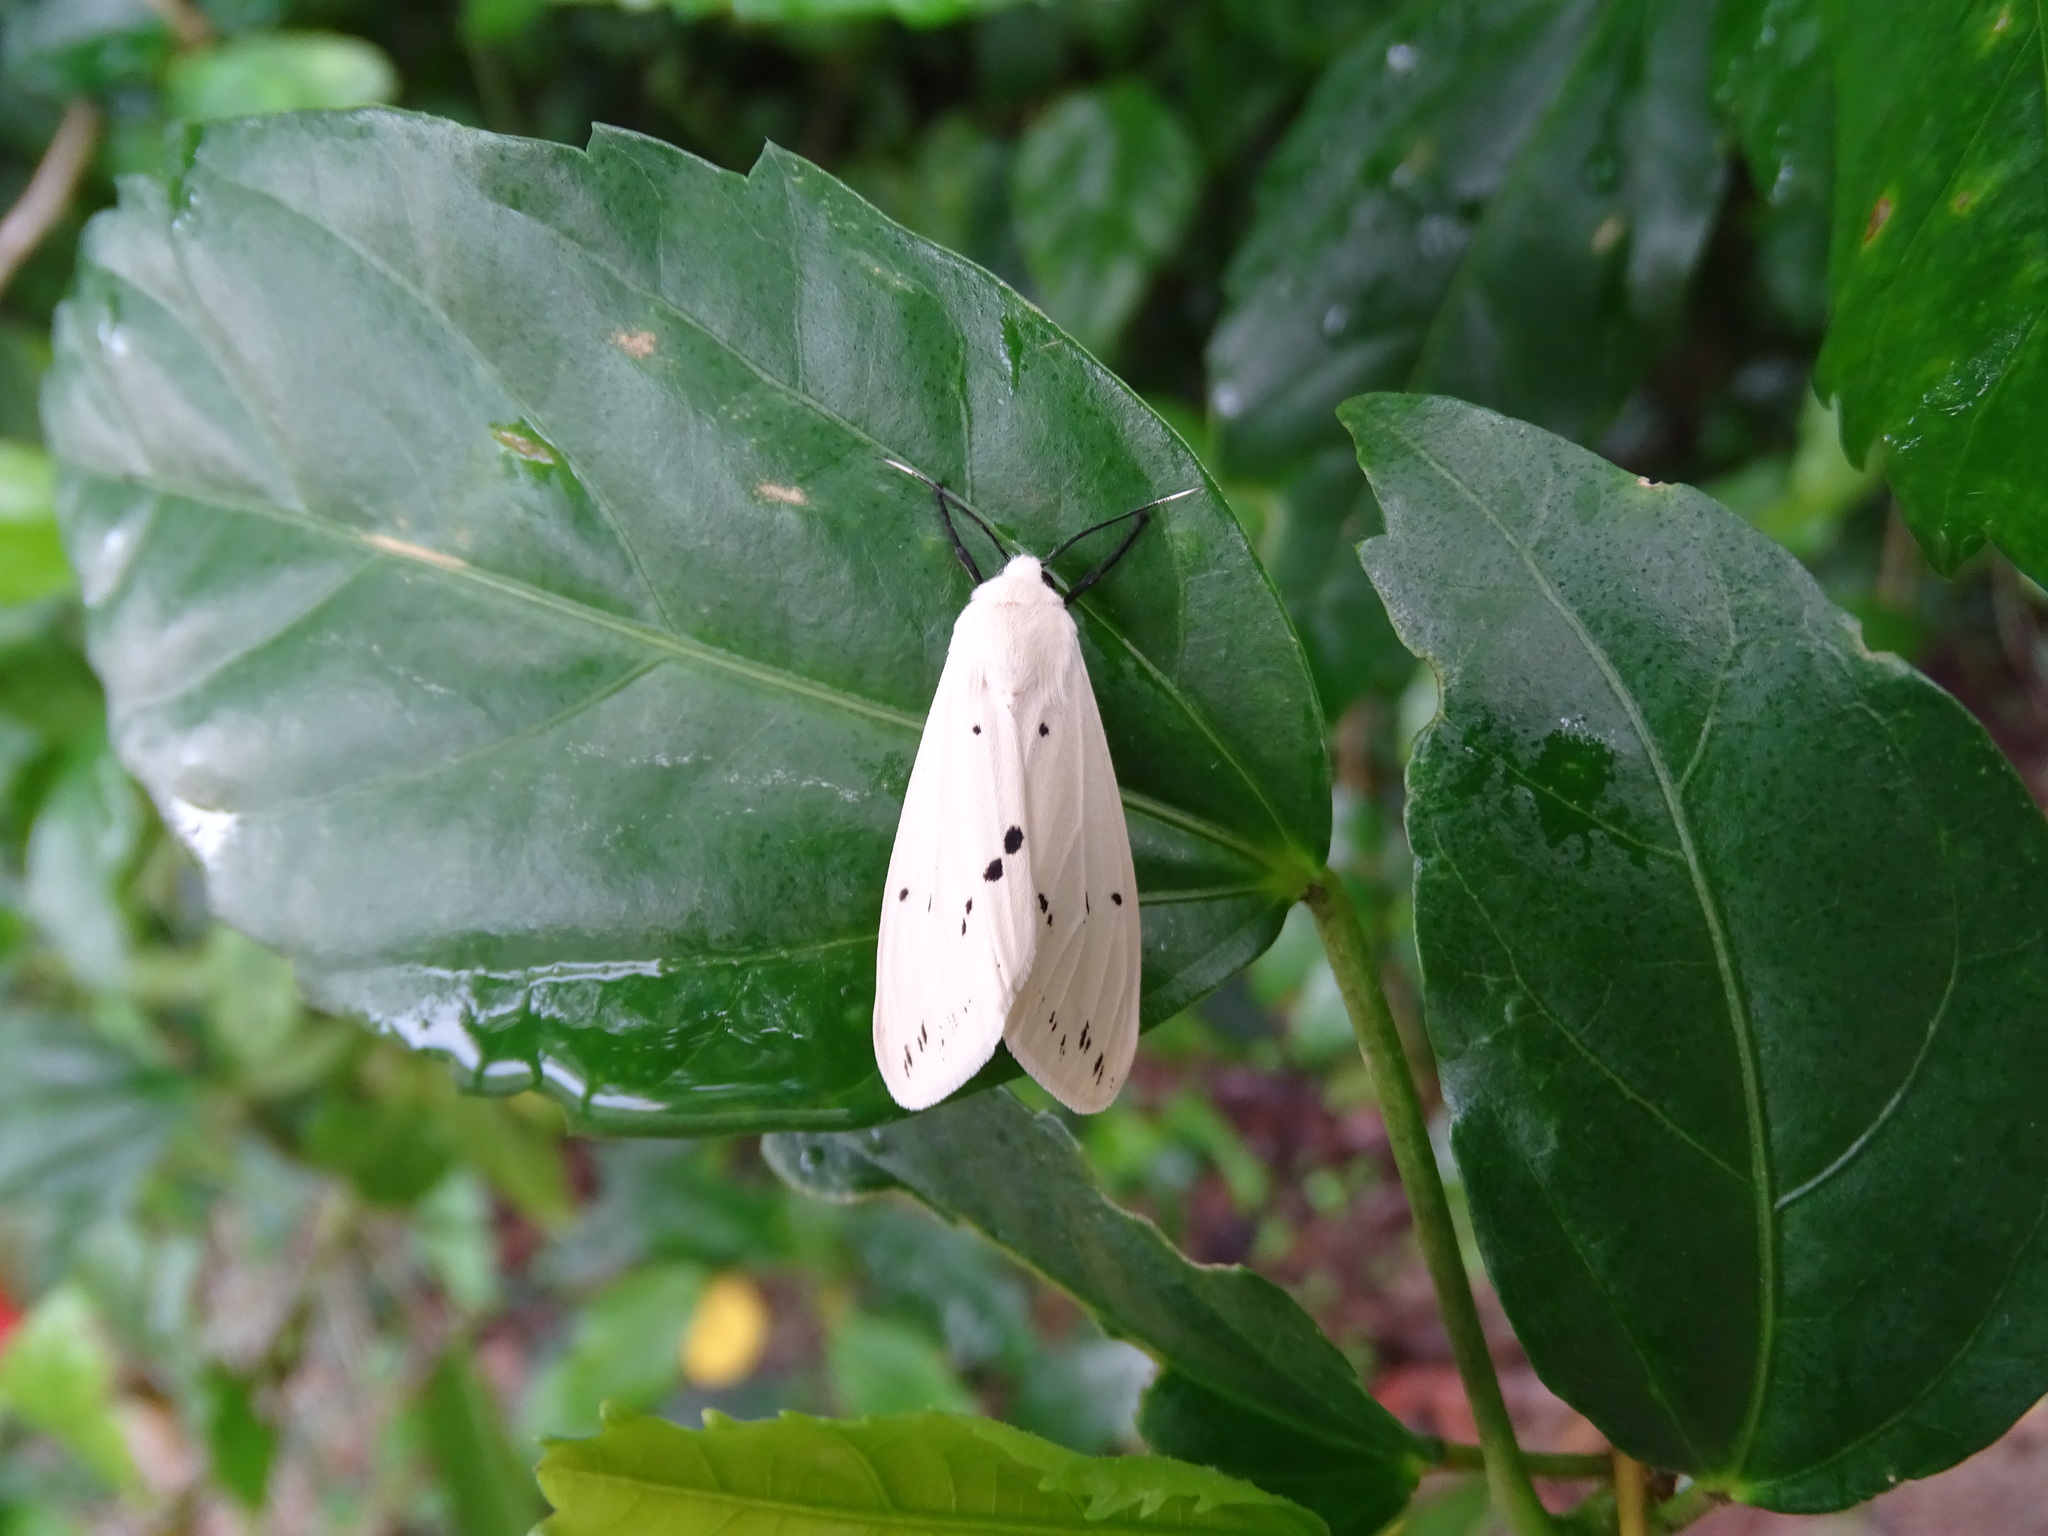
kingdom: Animalia
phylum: Arthropoda
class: Insecta
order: Lepidoptera
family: Erebidae
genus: Spilarctia
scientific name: Spilarctia subcarnea
